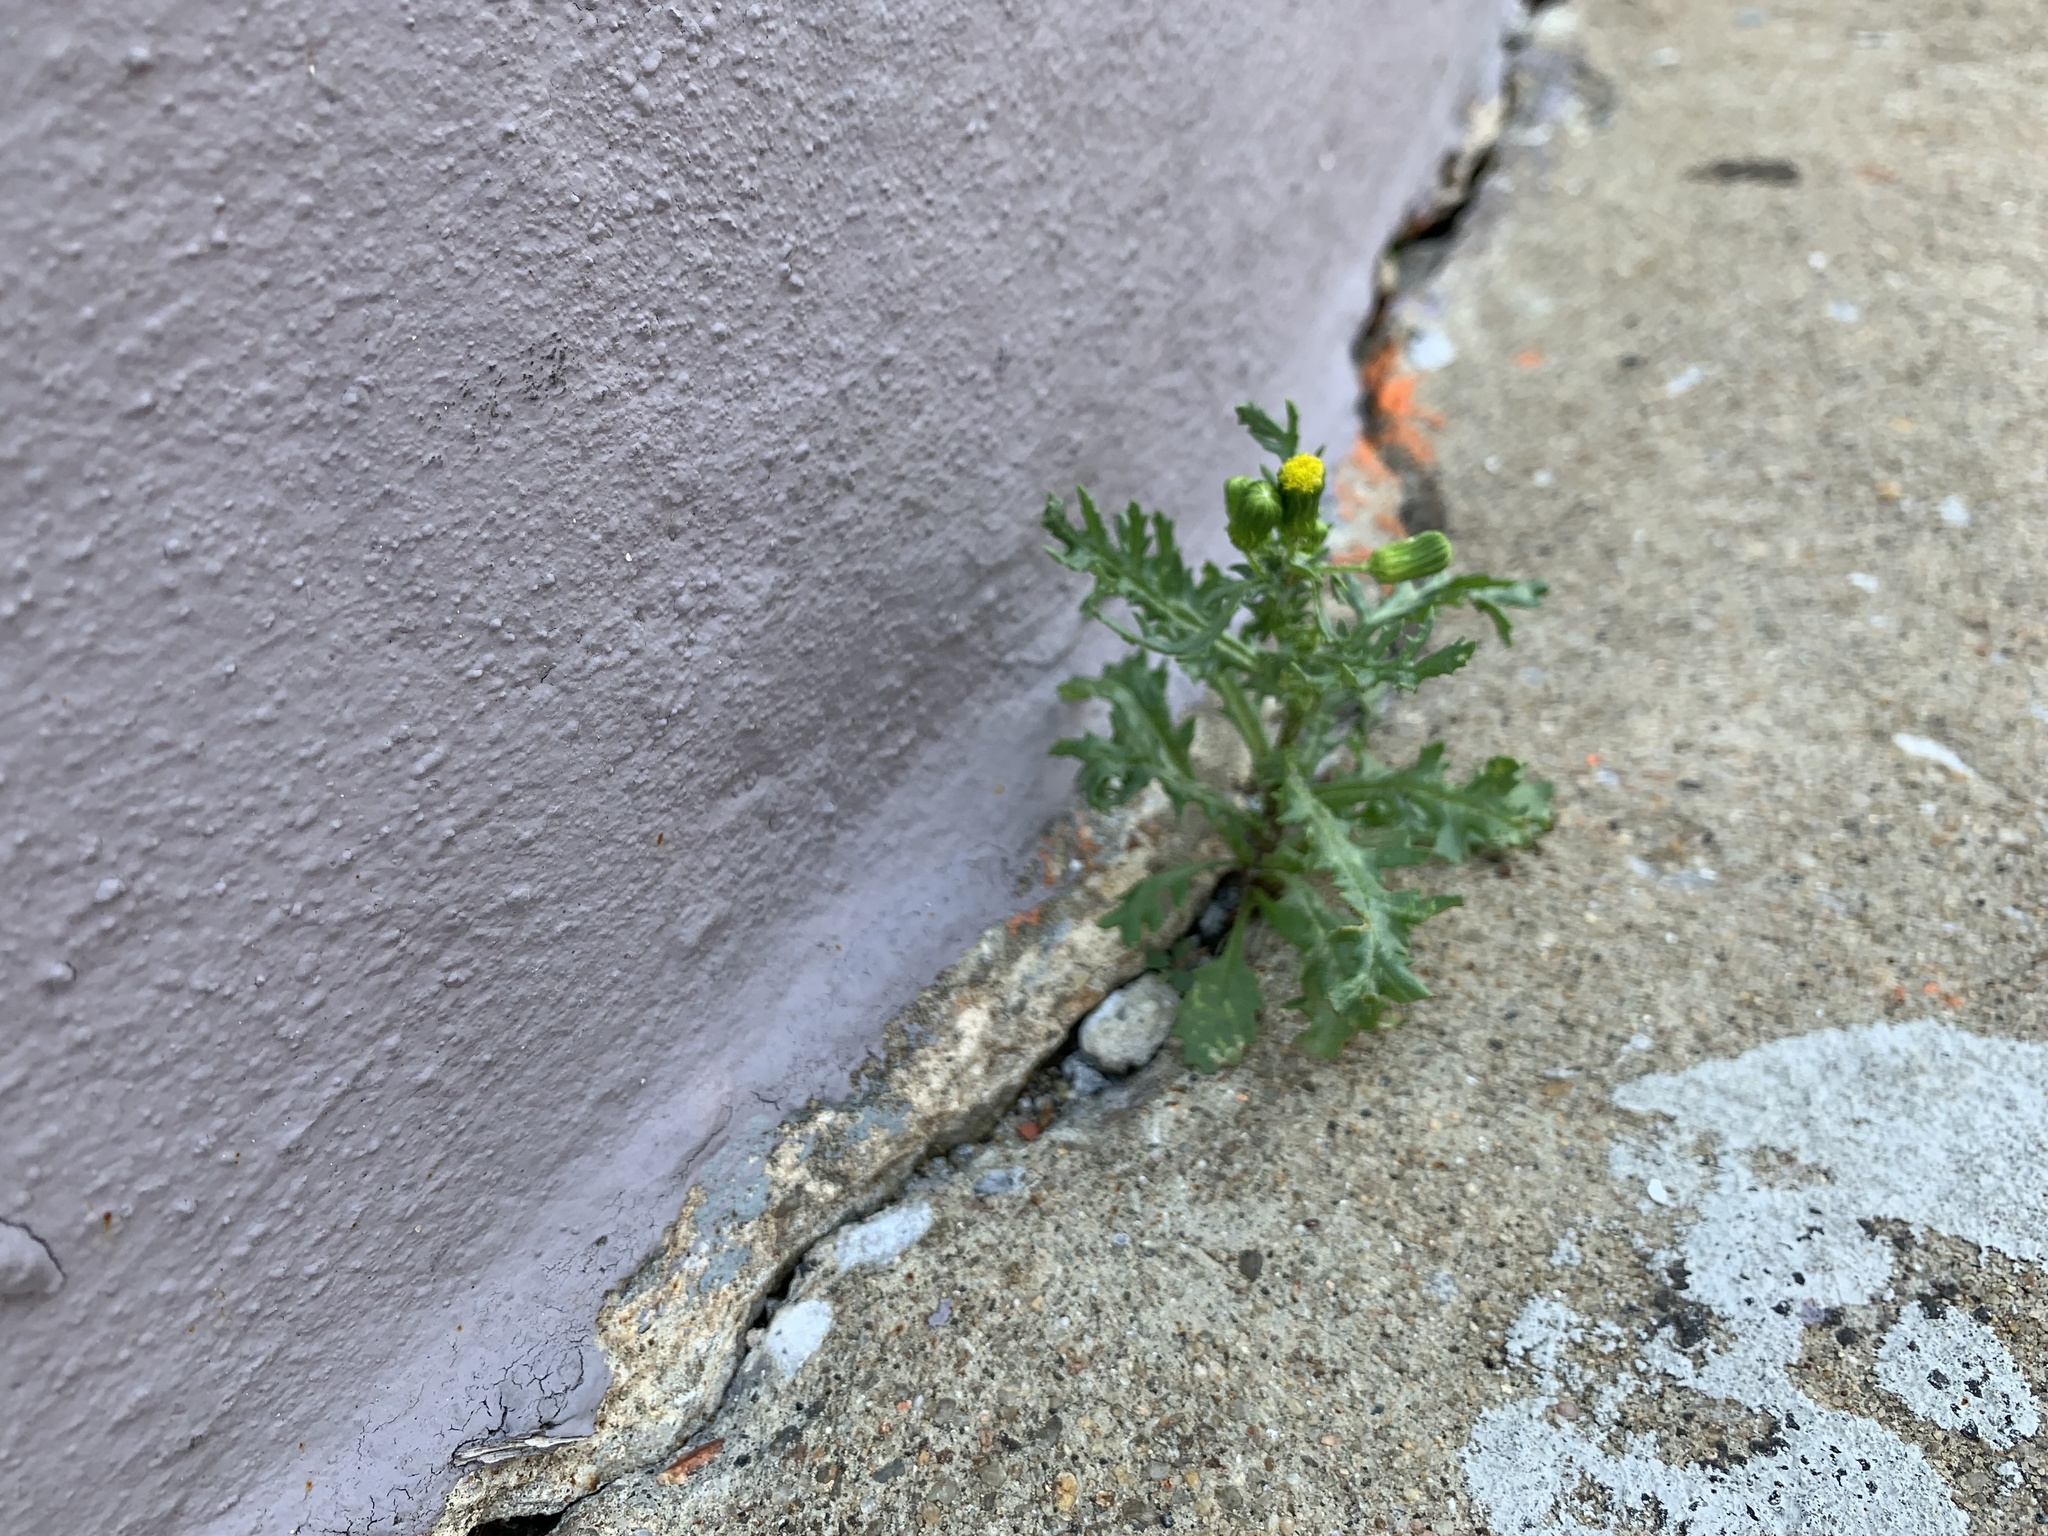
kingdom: Plantae
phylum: Tracheophyta
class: Magnoliopsida
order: Asterales
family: Asteraceae
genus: Senecio
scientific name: Senecio vulgaris
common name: Old-man-in-the-spring
